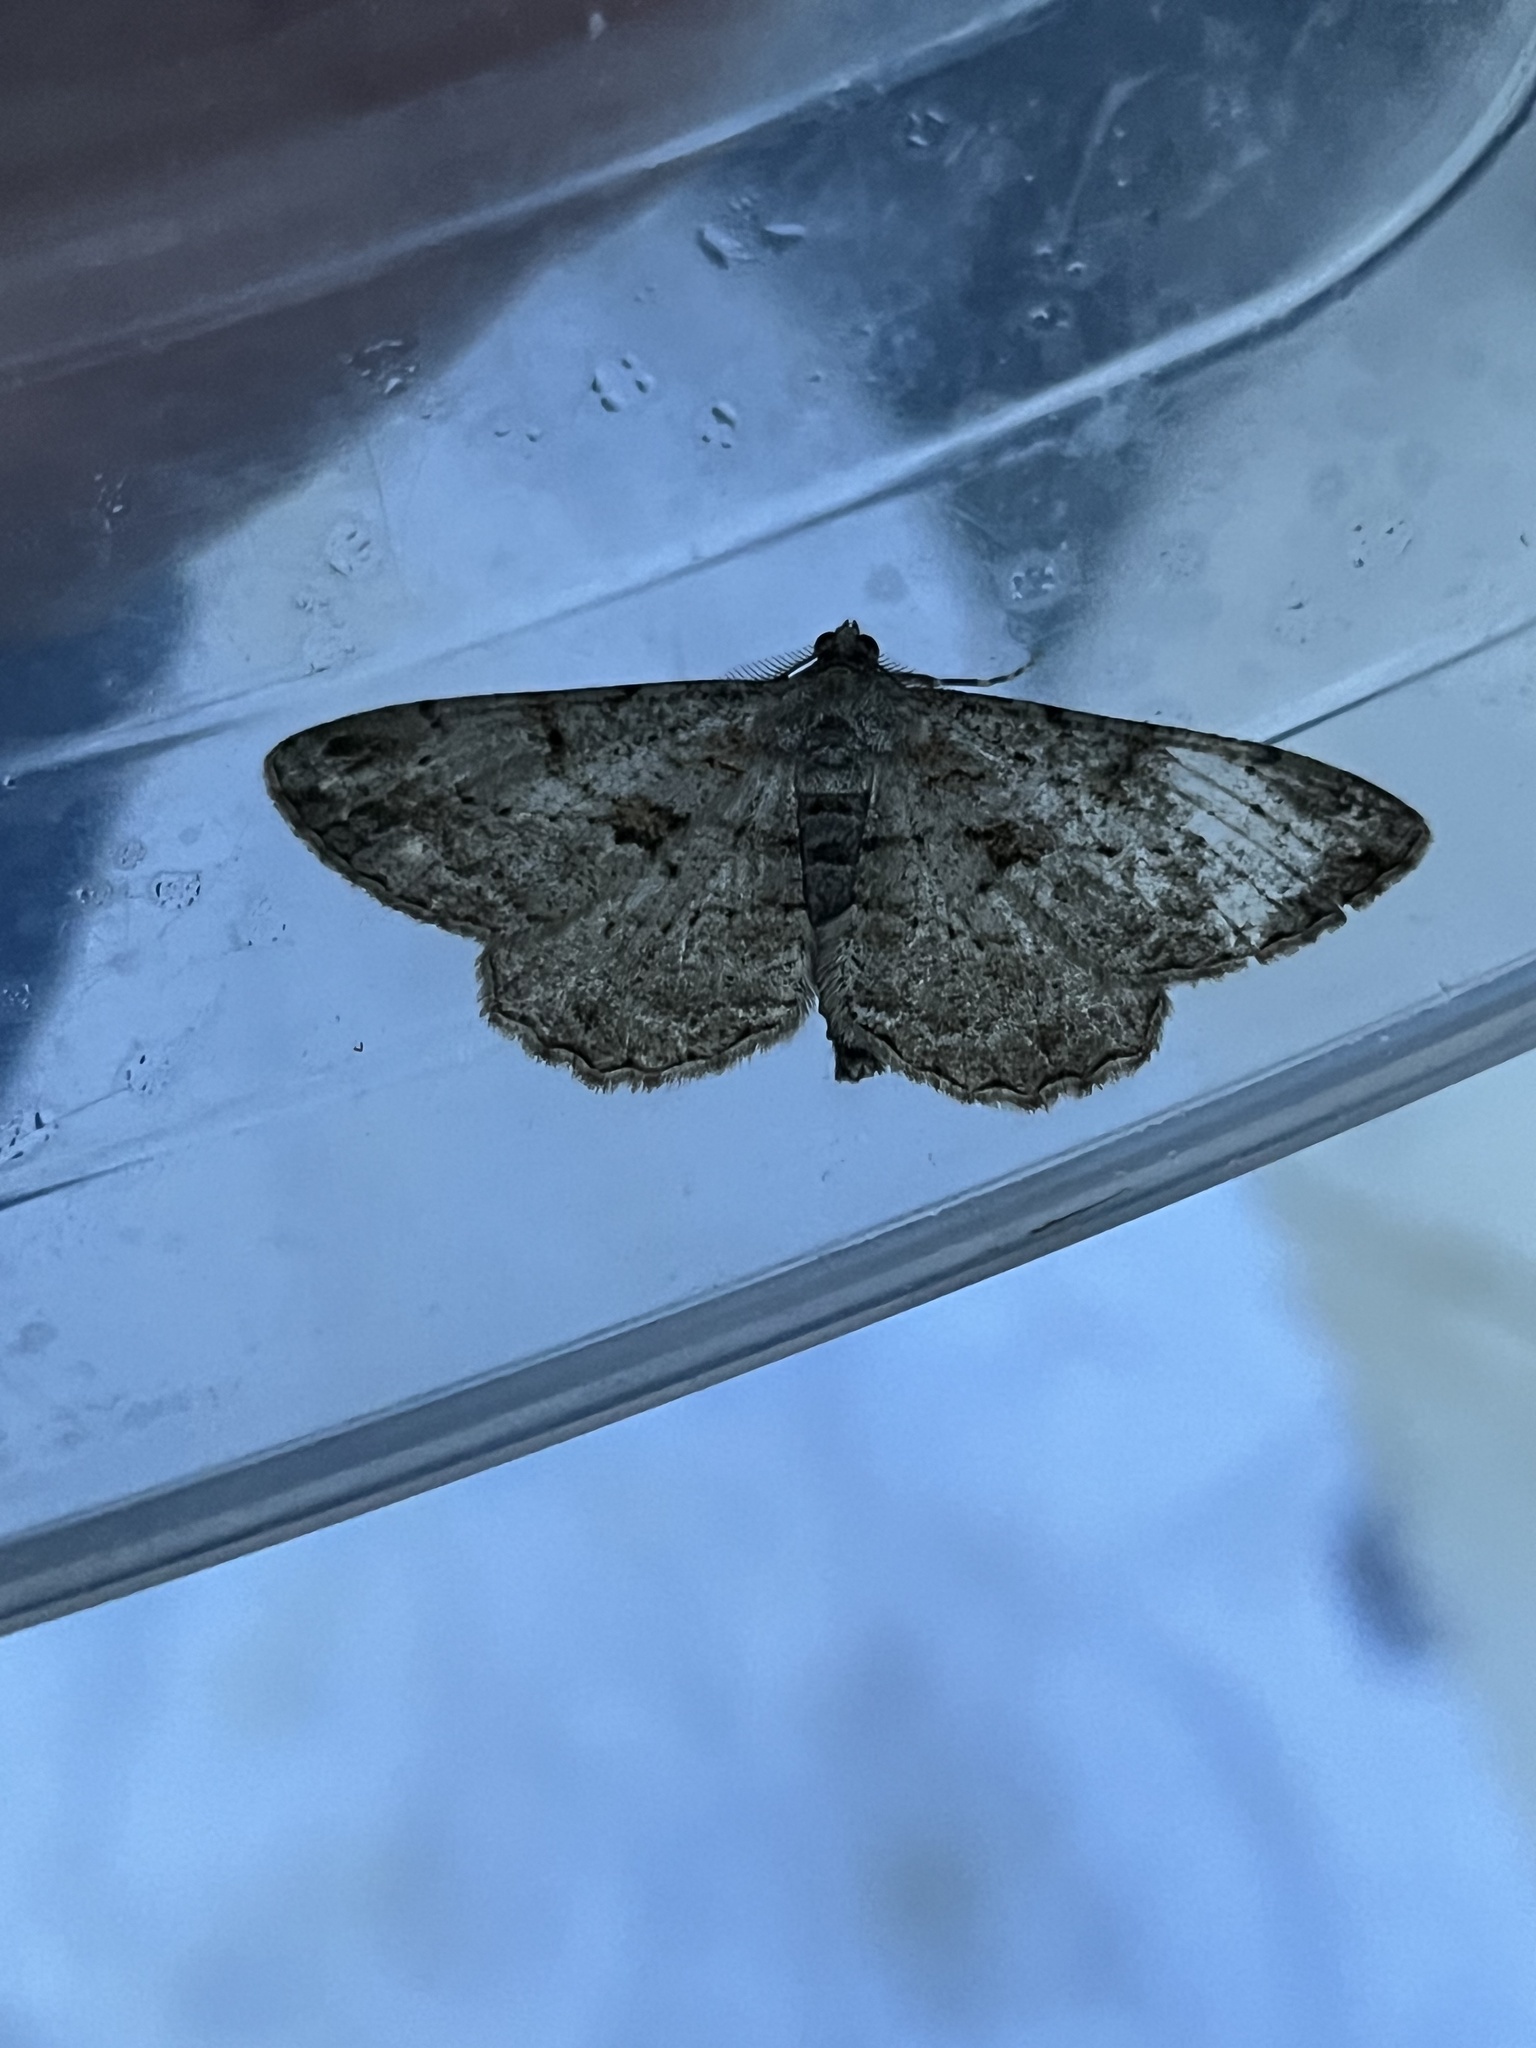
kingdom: Animalia
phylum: Arthropoda
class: Insecta
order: Lepidoptera
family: Geometridae
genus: Peribatodes
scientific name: Peribatodes rhomboidaria
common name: Willow beauty
